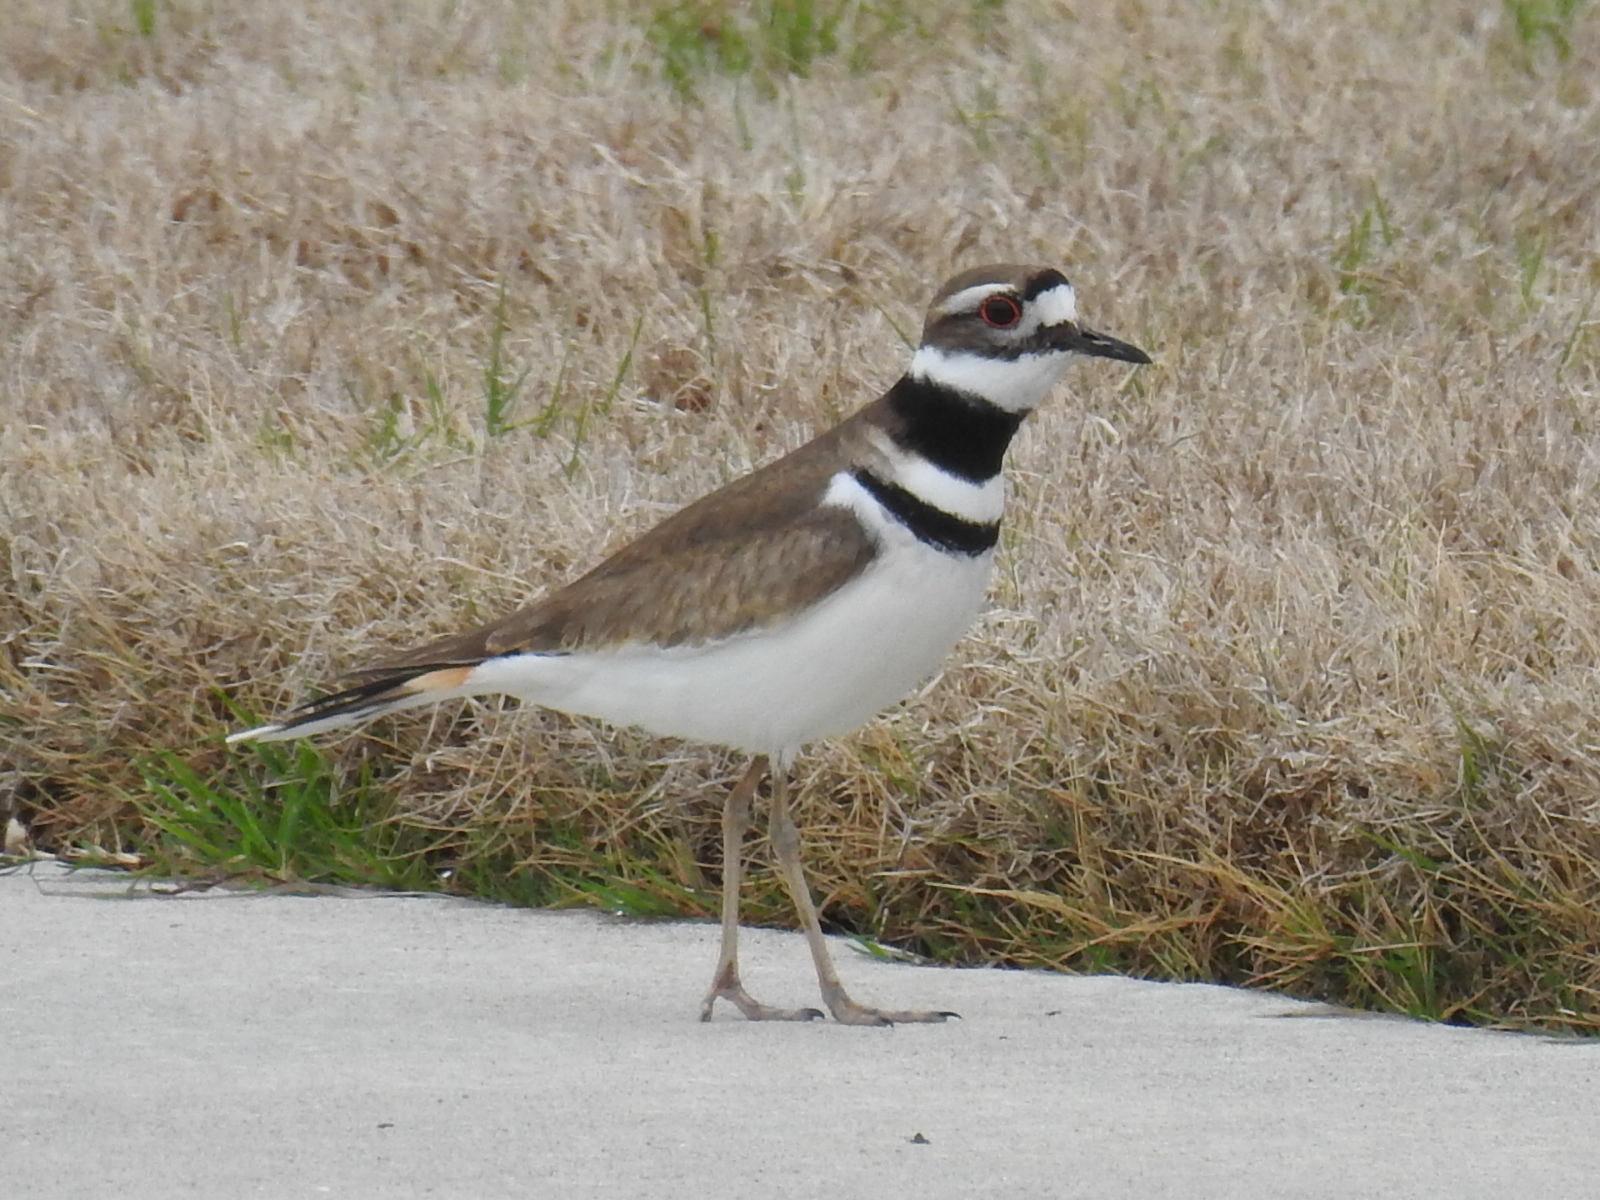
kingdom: Animalia
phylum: Chordata
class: Aves
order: Charadriiformes
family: Charadriidae
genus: Charadrius
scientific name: Charadrius vociferus
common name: Killdeer
